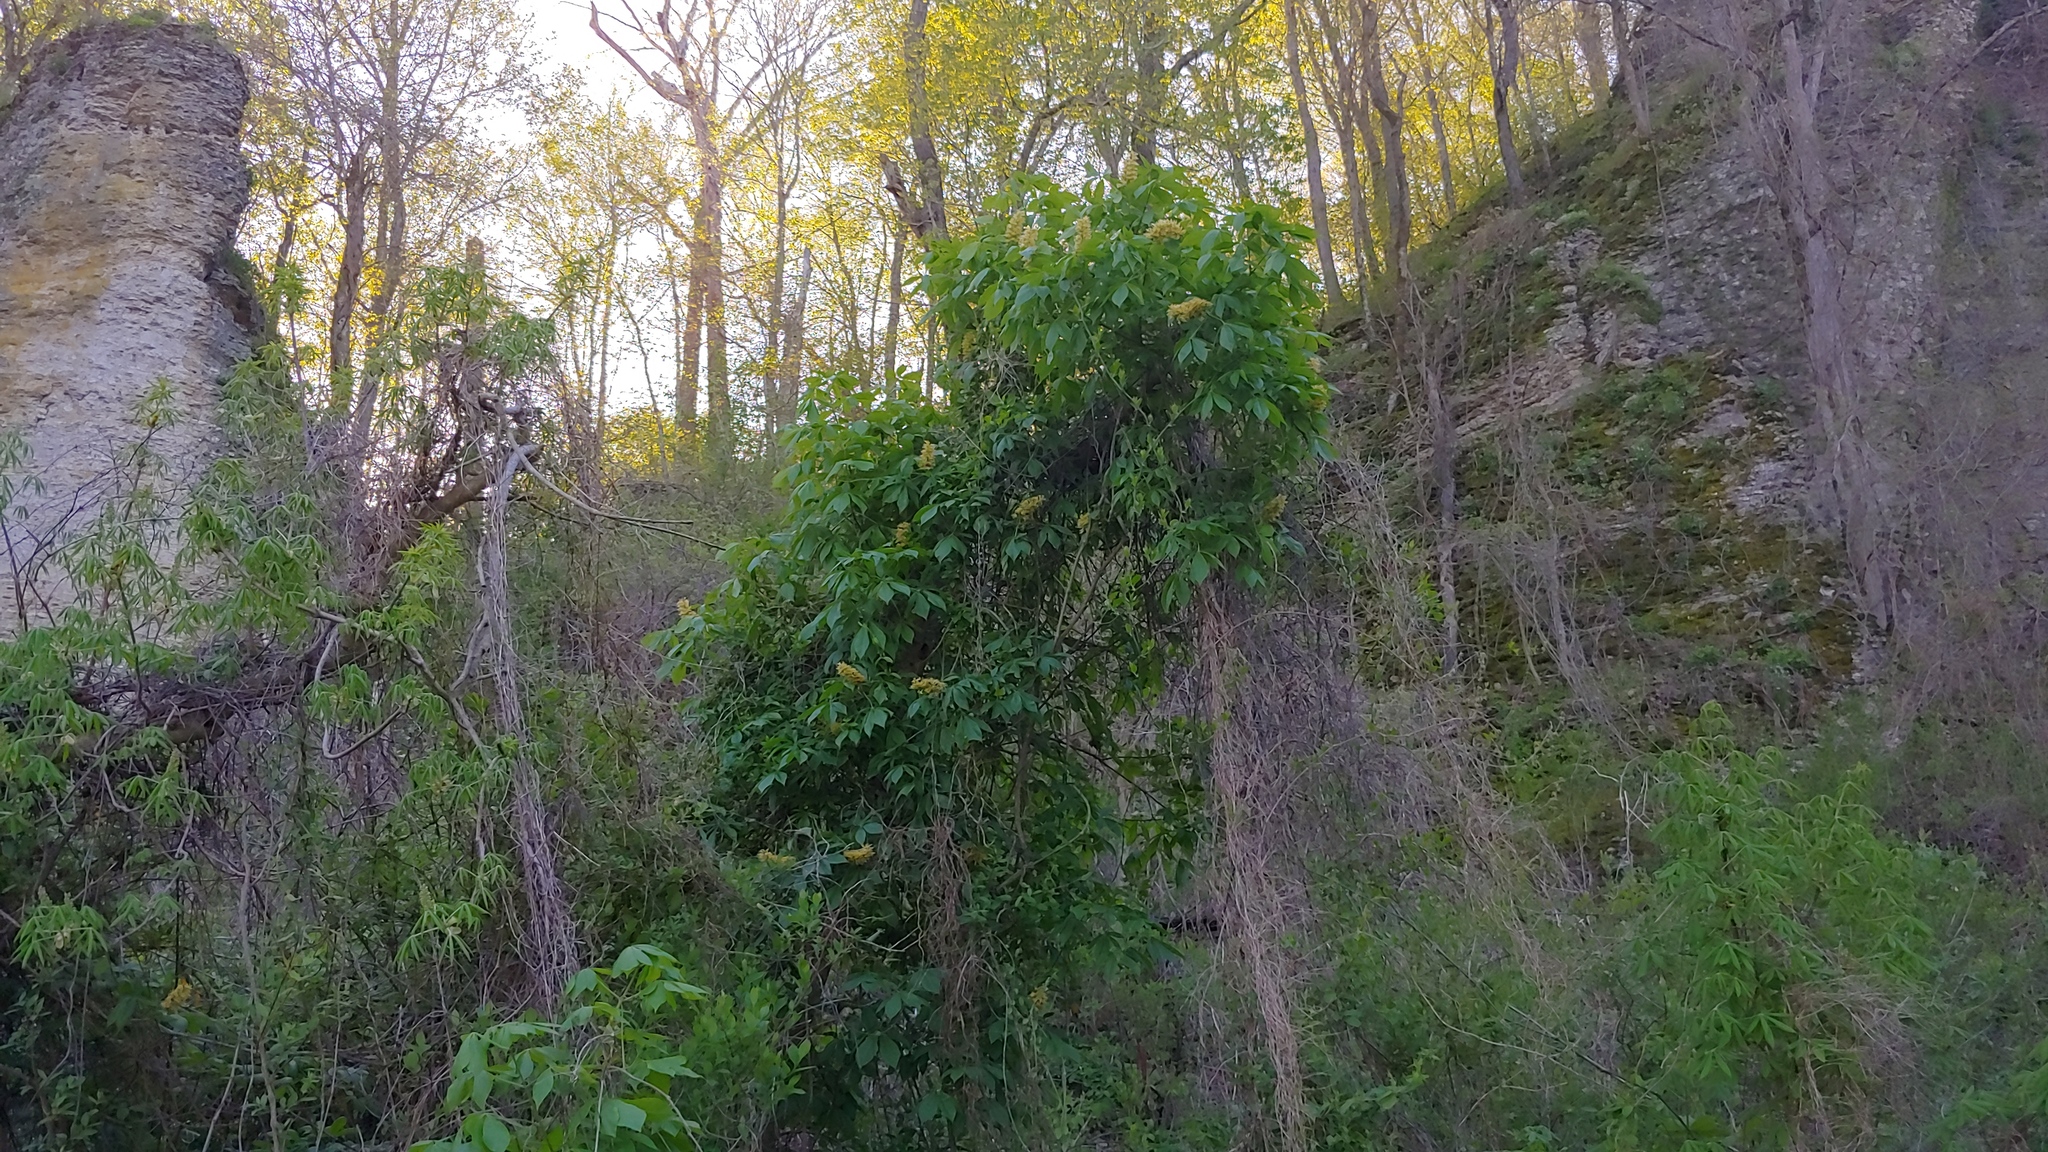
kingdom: Plantae
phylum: Tracheophyta
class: Magnoliopsida
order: Sapindales
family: Sapindaceae
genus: Aesculus
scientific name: Aesculus glabra
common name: Ohio buckeye
